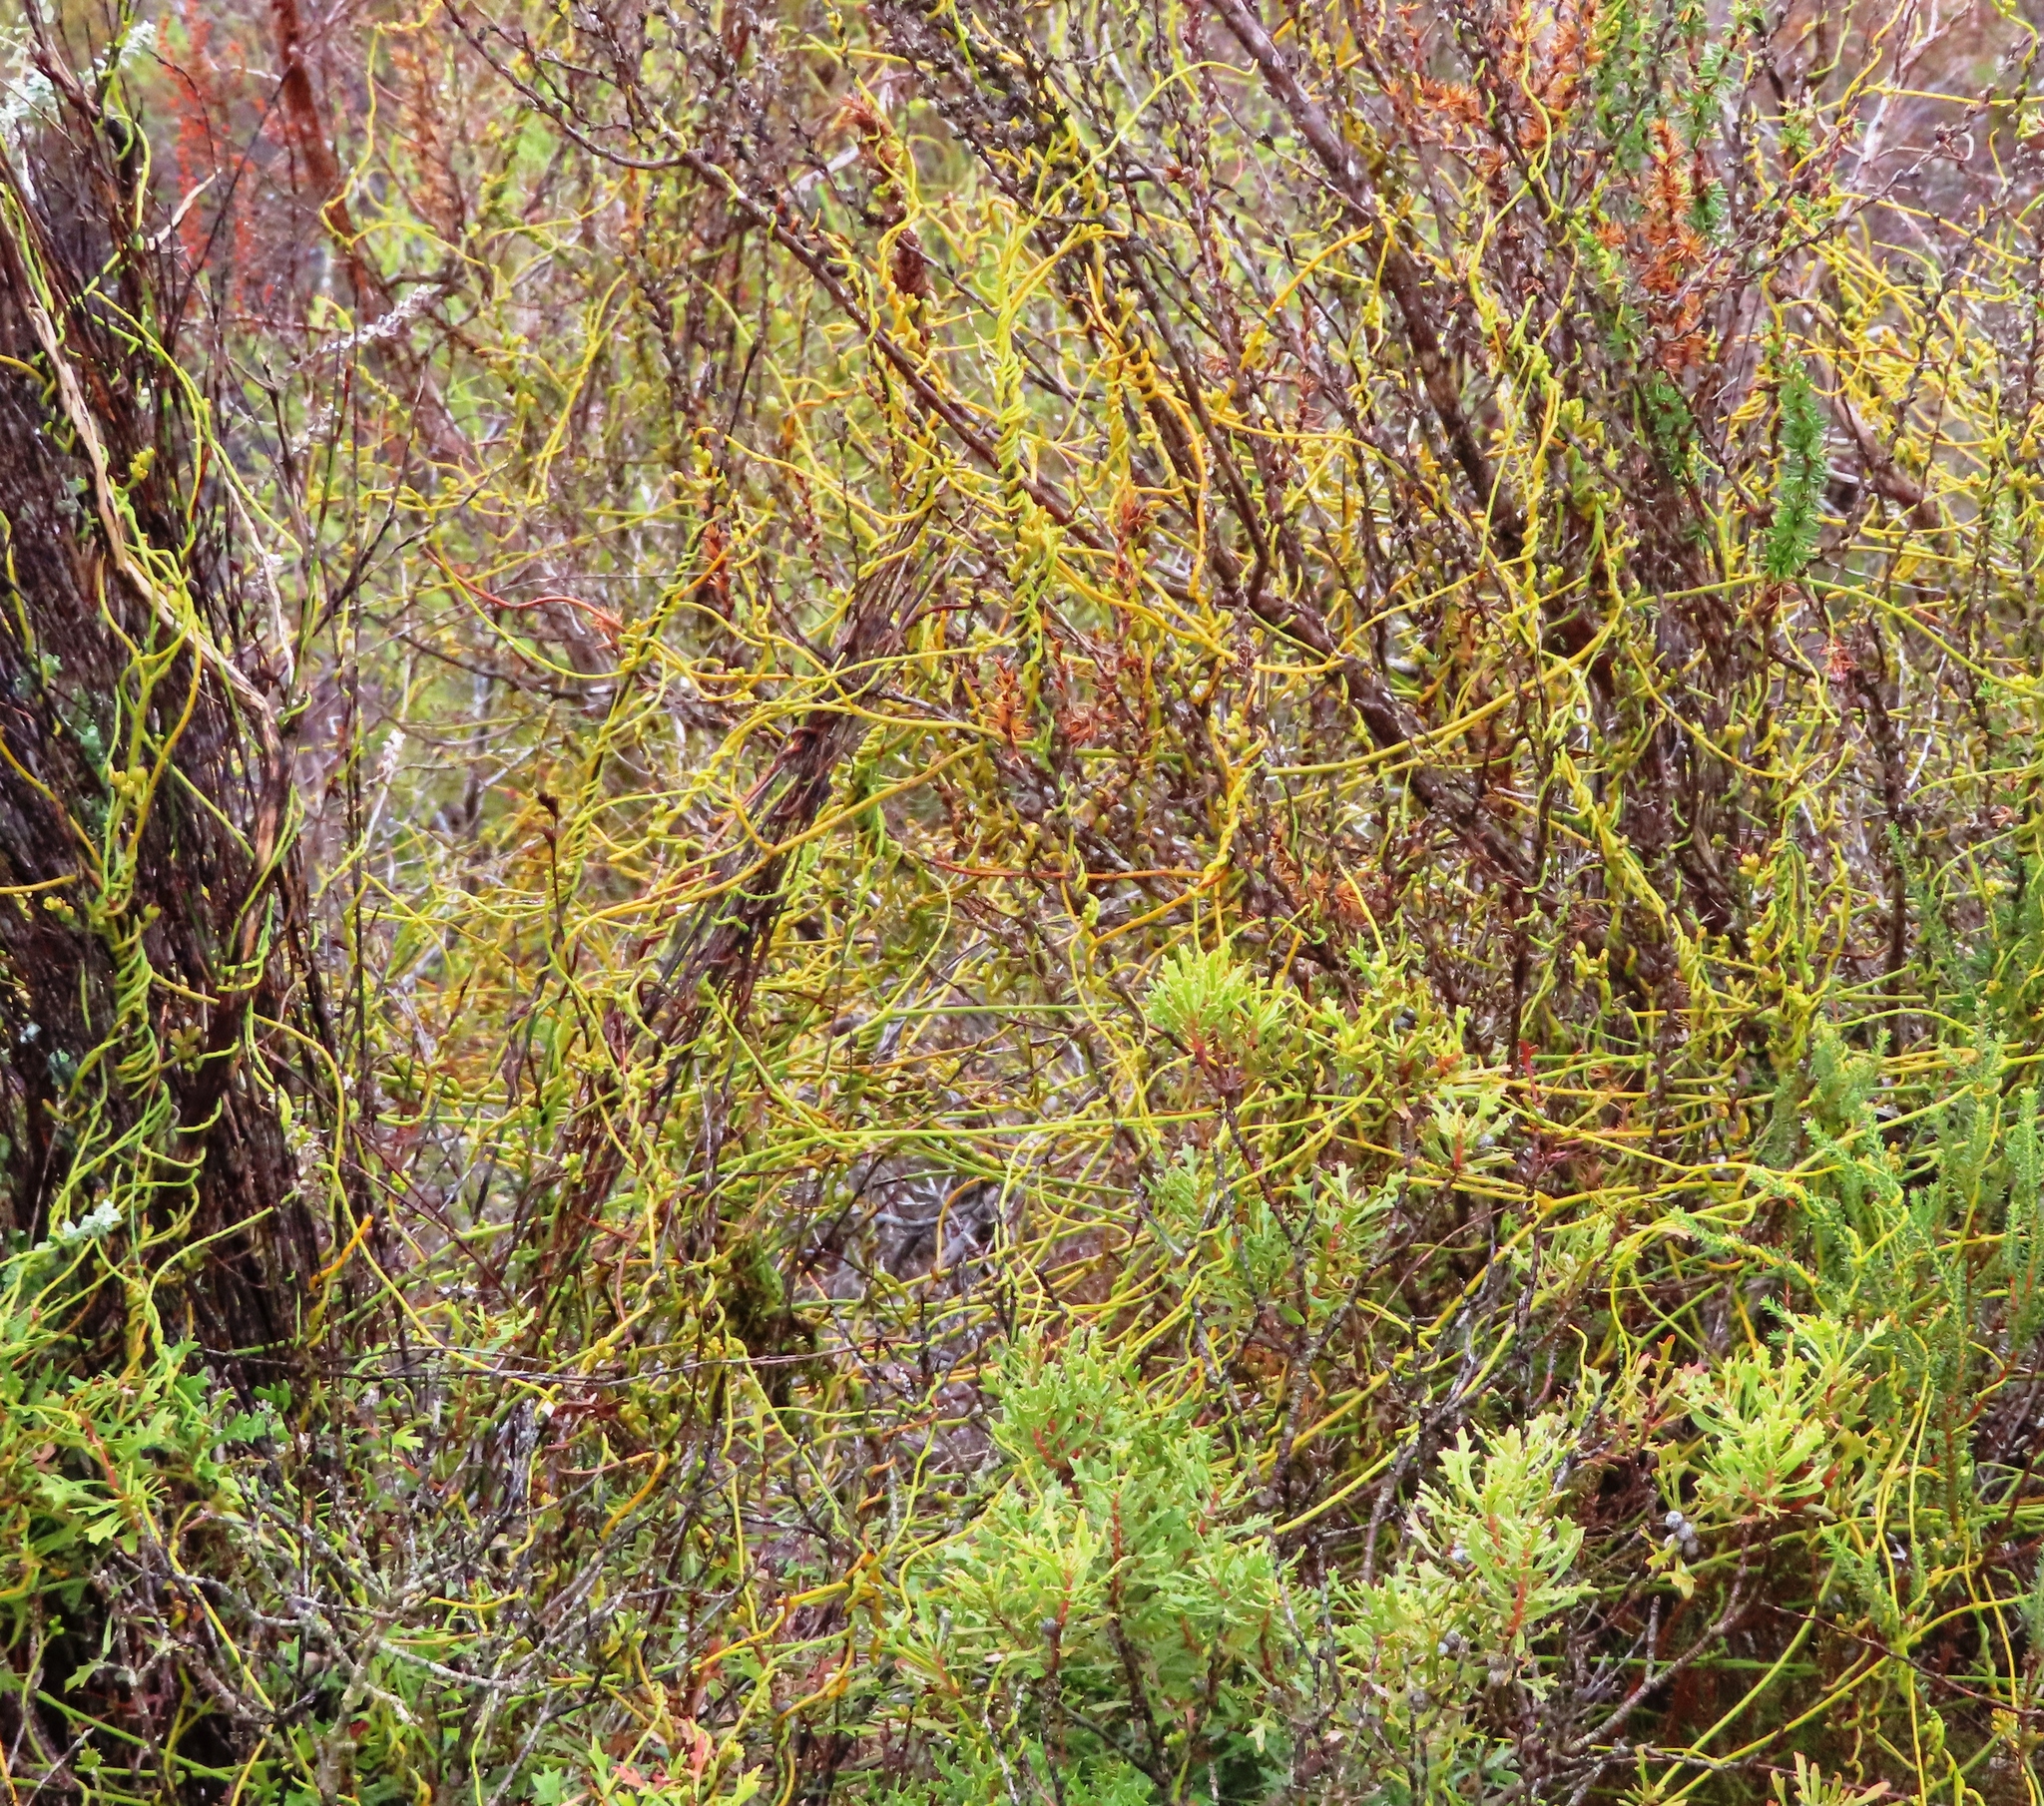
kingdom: Plantae
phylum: Tracheophyta
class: Magnoliopsida
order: Laurales
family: Lauraceae
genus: Cassytha
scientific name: Cassytha ciliolata
